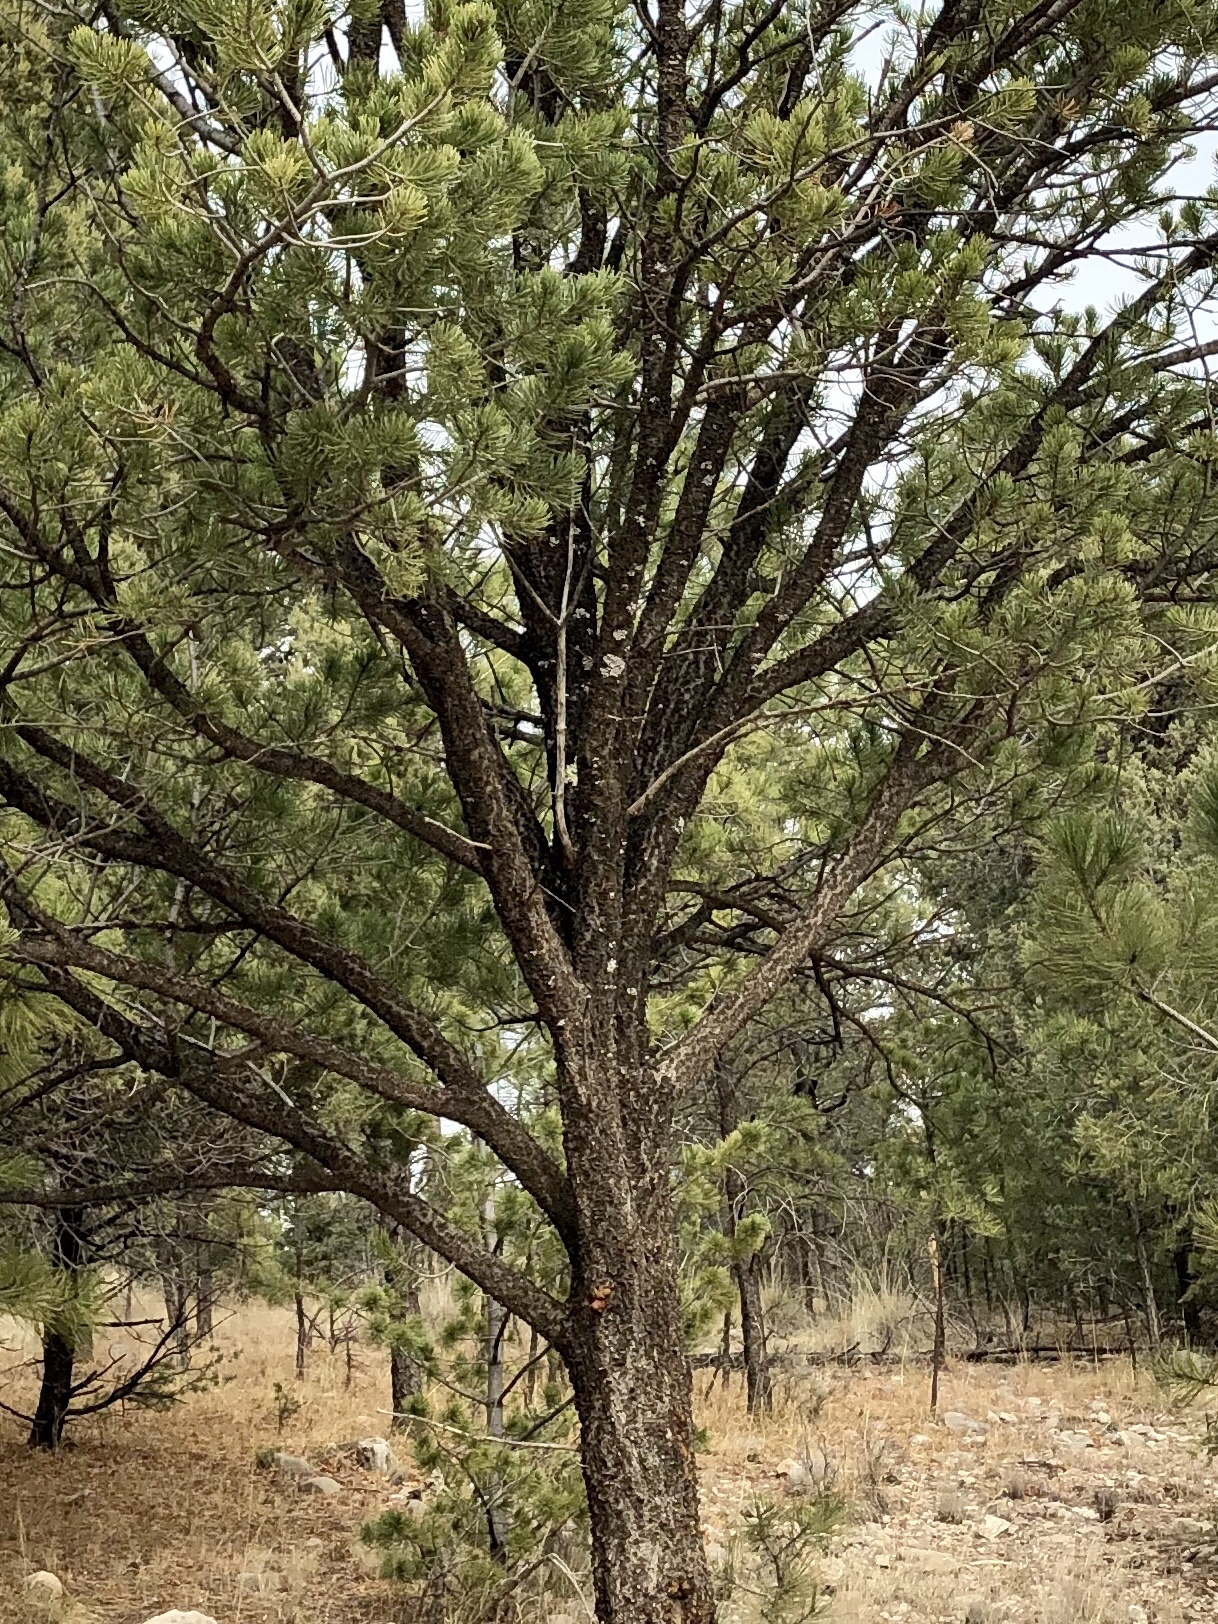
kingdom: Plantae
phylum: Tracheophyta
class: Pinopsida
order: Pinales
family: Pinaceae
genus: Pinus
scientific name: Pinus edulis
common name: Colorado pinyon
